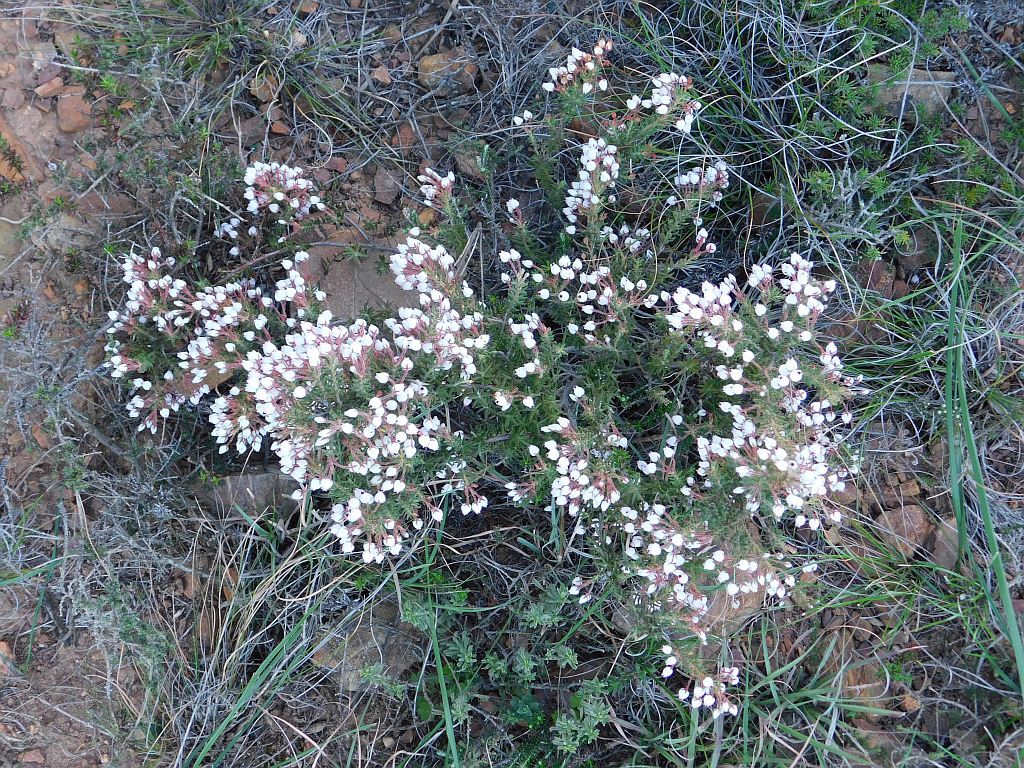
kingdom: Plantae
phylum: Tracheophyta
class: Magnoliopsida
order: Ericales
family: Ericaceae
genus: Erica
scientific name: Erica hirta
